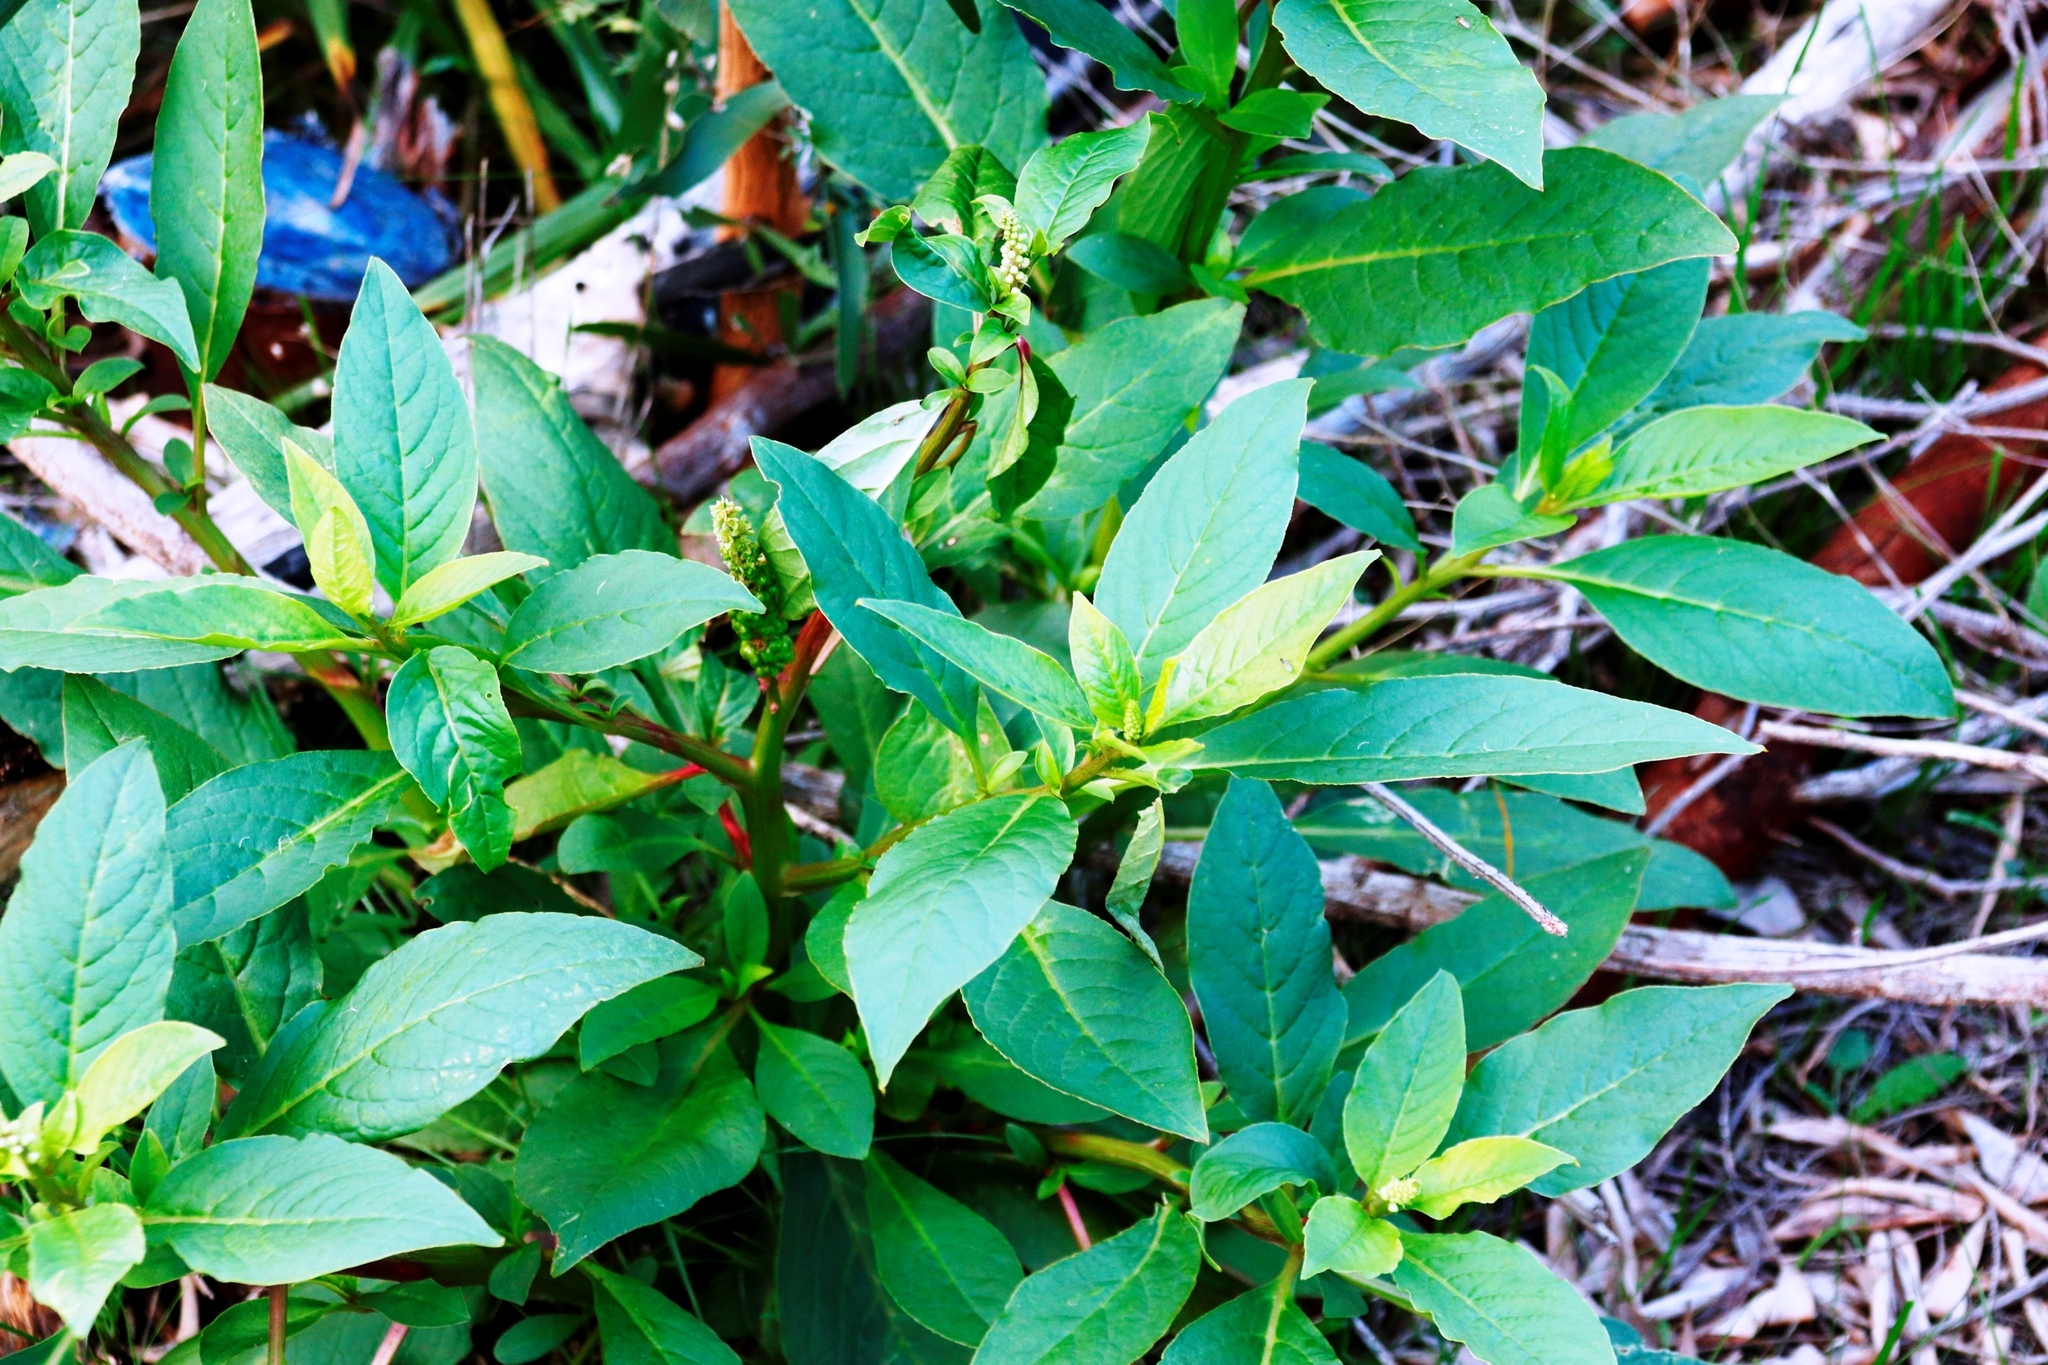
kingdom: Plantae
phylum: Tracheophyta
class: Magnoliopsida
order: Caryophyllales
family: Phytolaccaceae
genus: Phytolacca
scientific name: Phytolacca icosandra
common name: Button pokeweed
